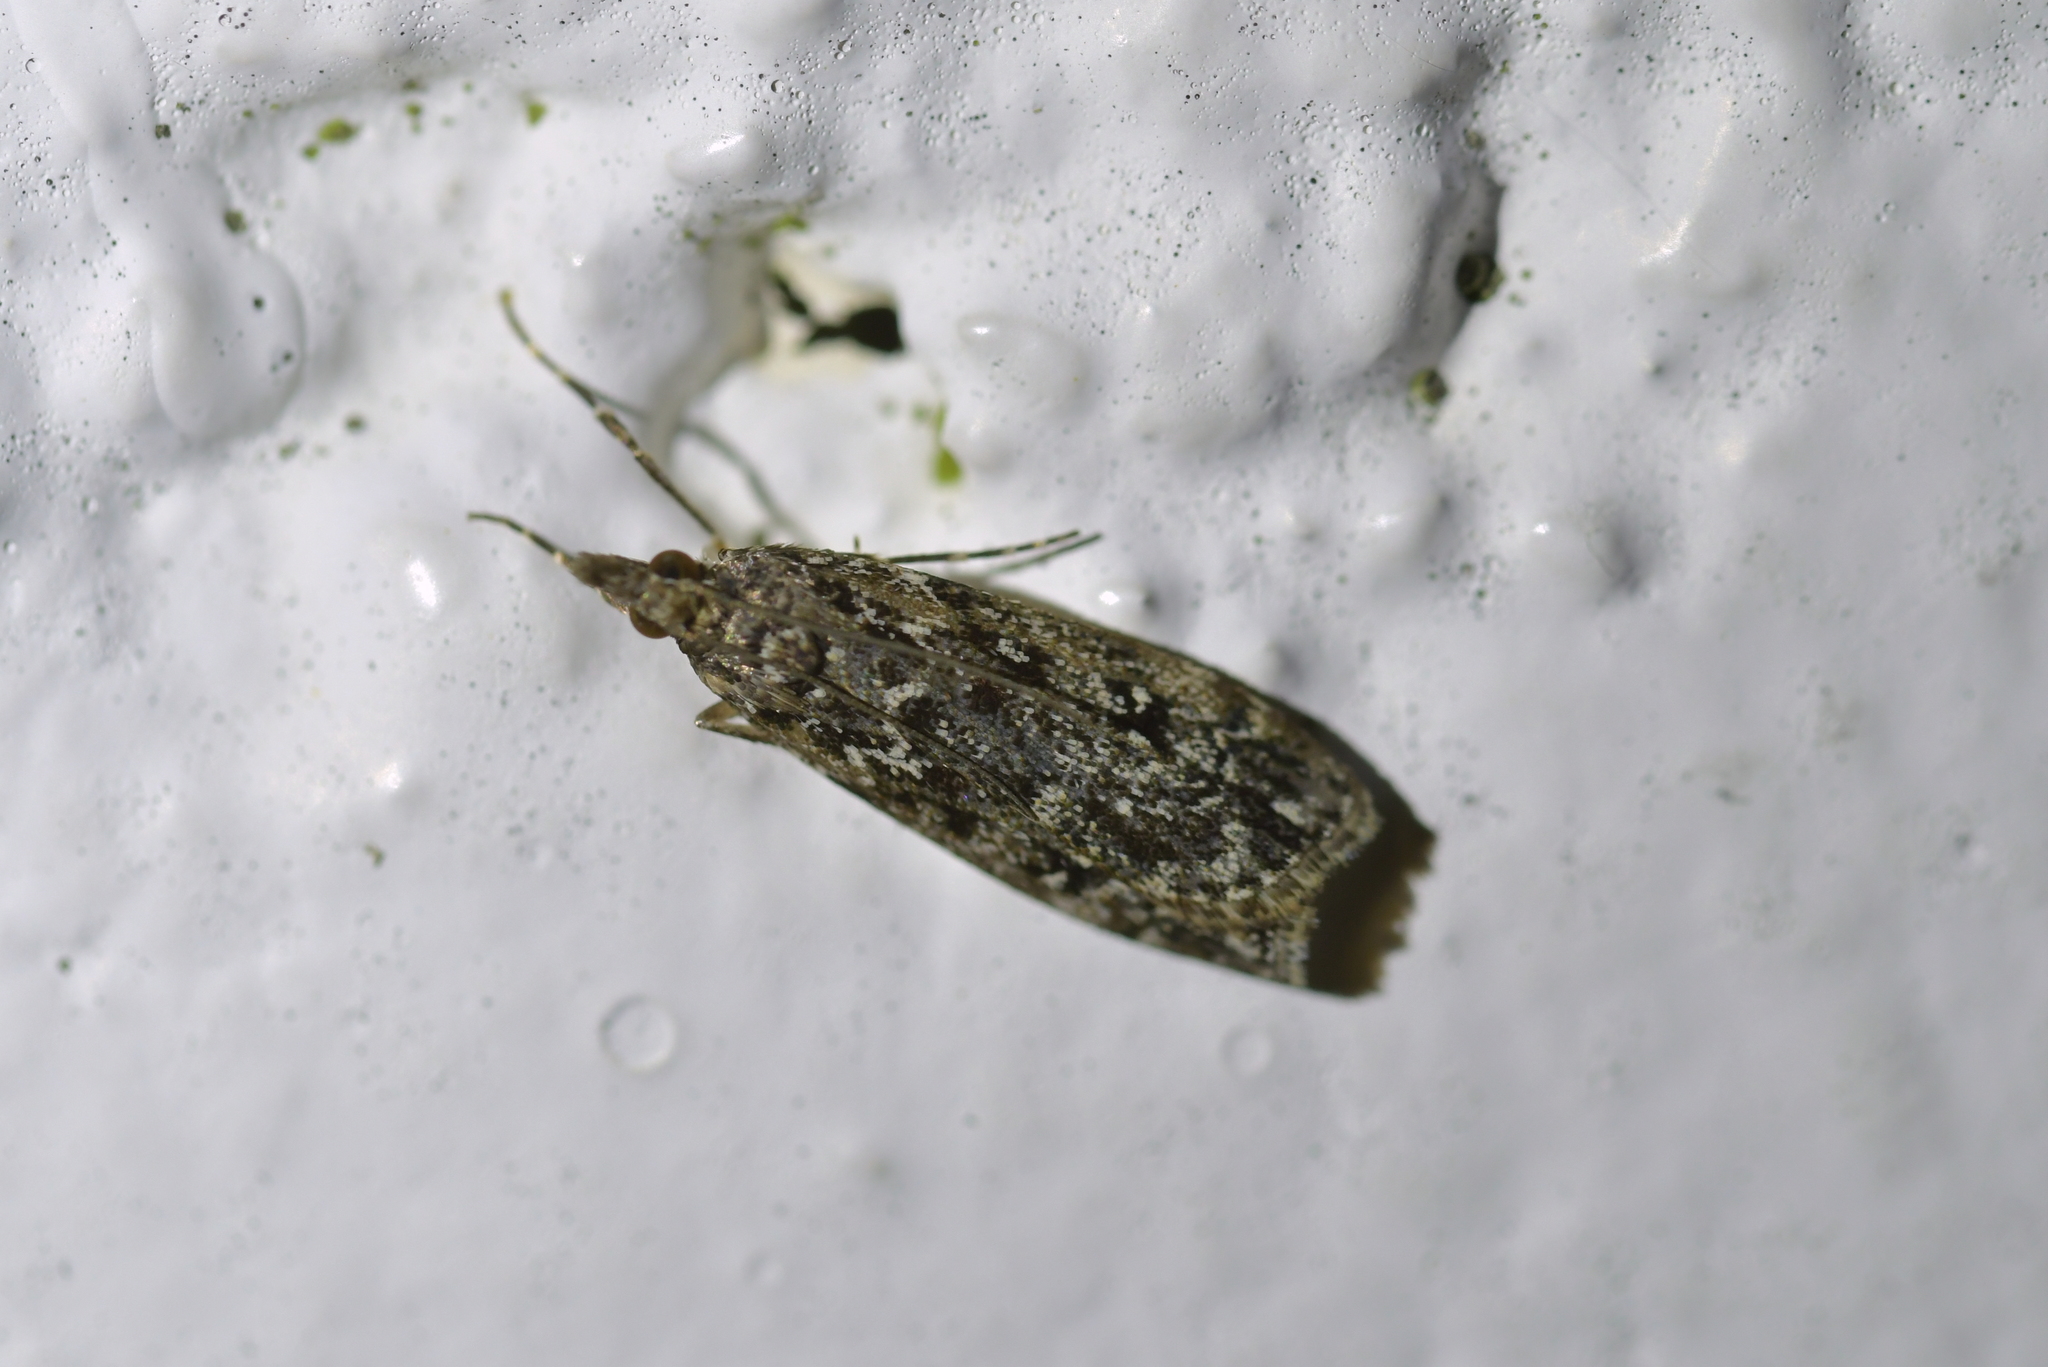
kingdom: Animalia
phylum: Arthropoda
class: Insecta
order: Lepidoptera
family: Crambidae
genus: Eudonia
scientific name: Eudonia philerga
